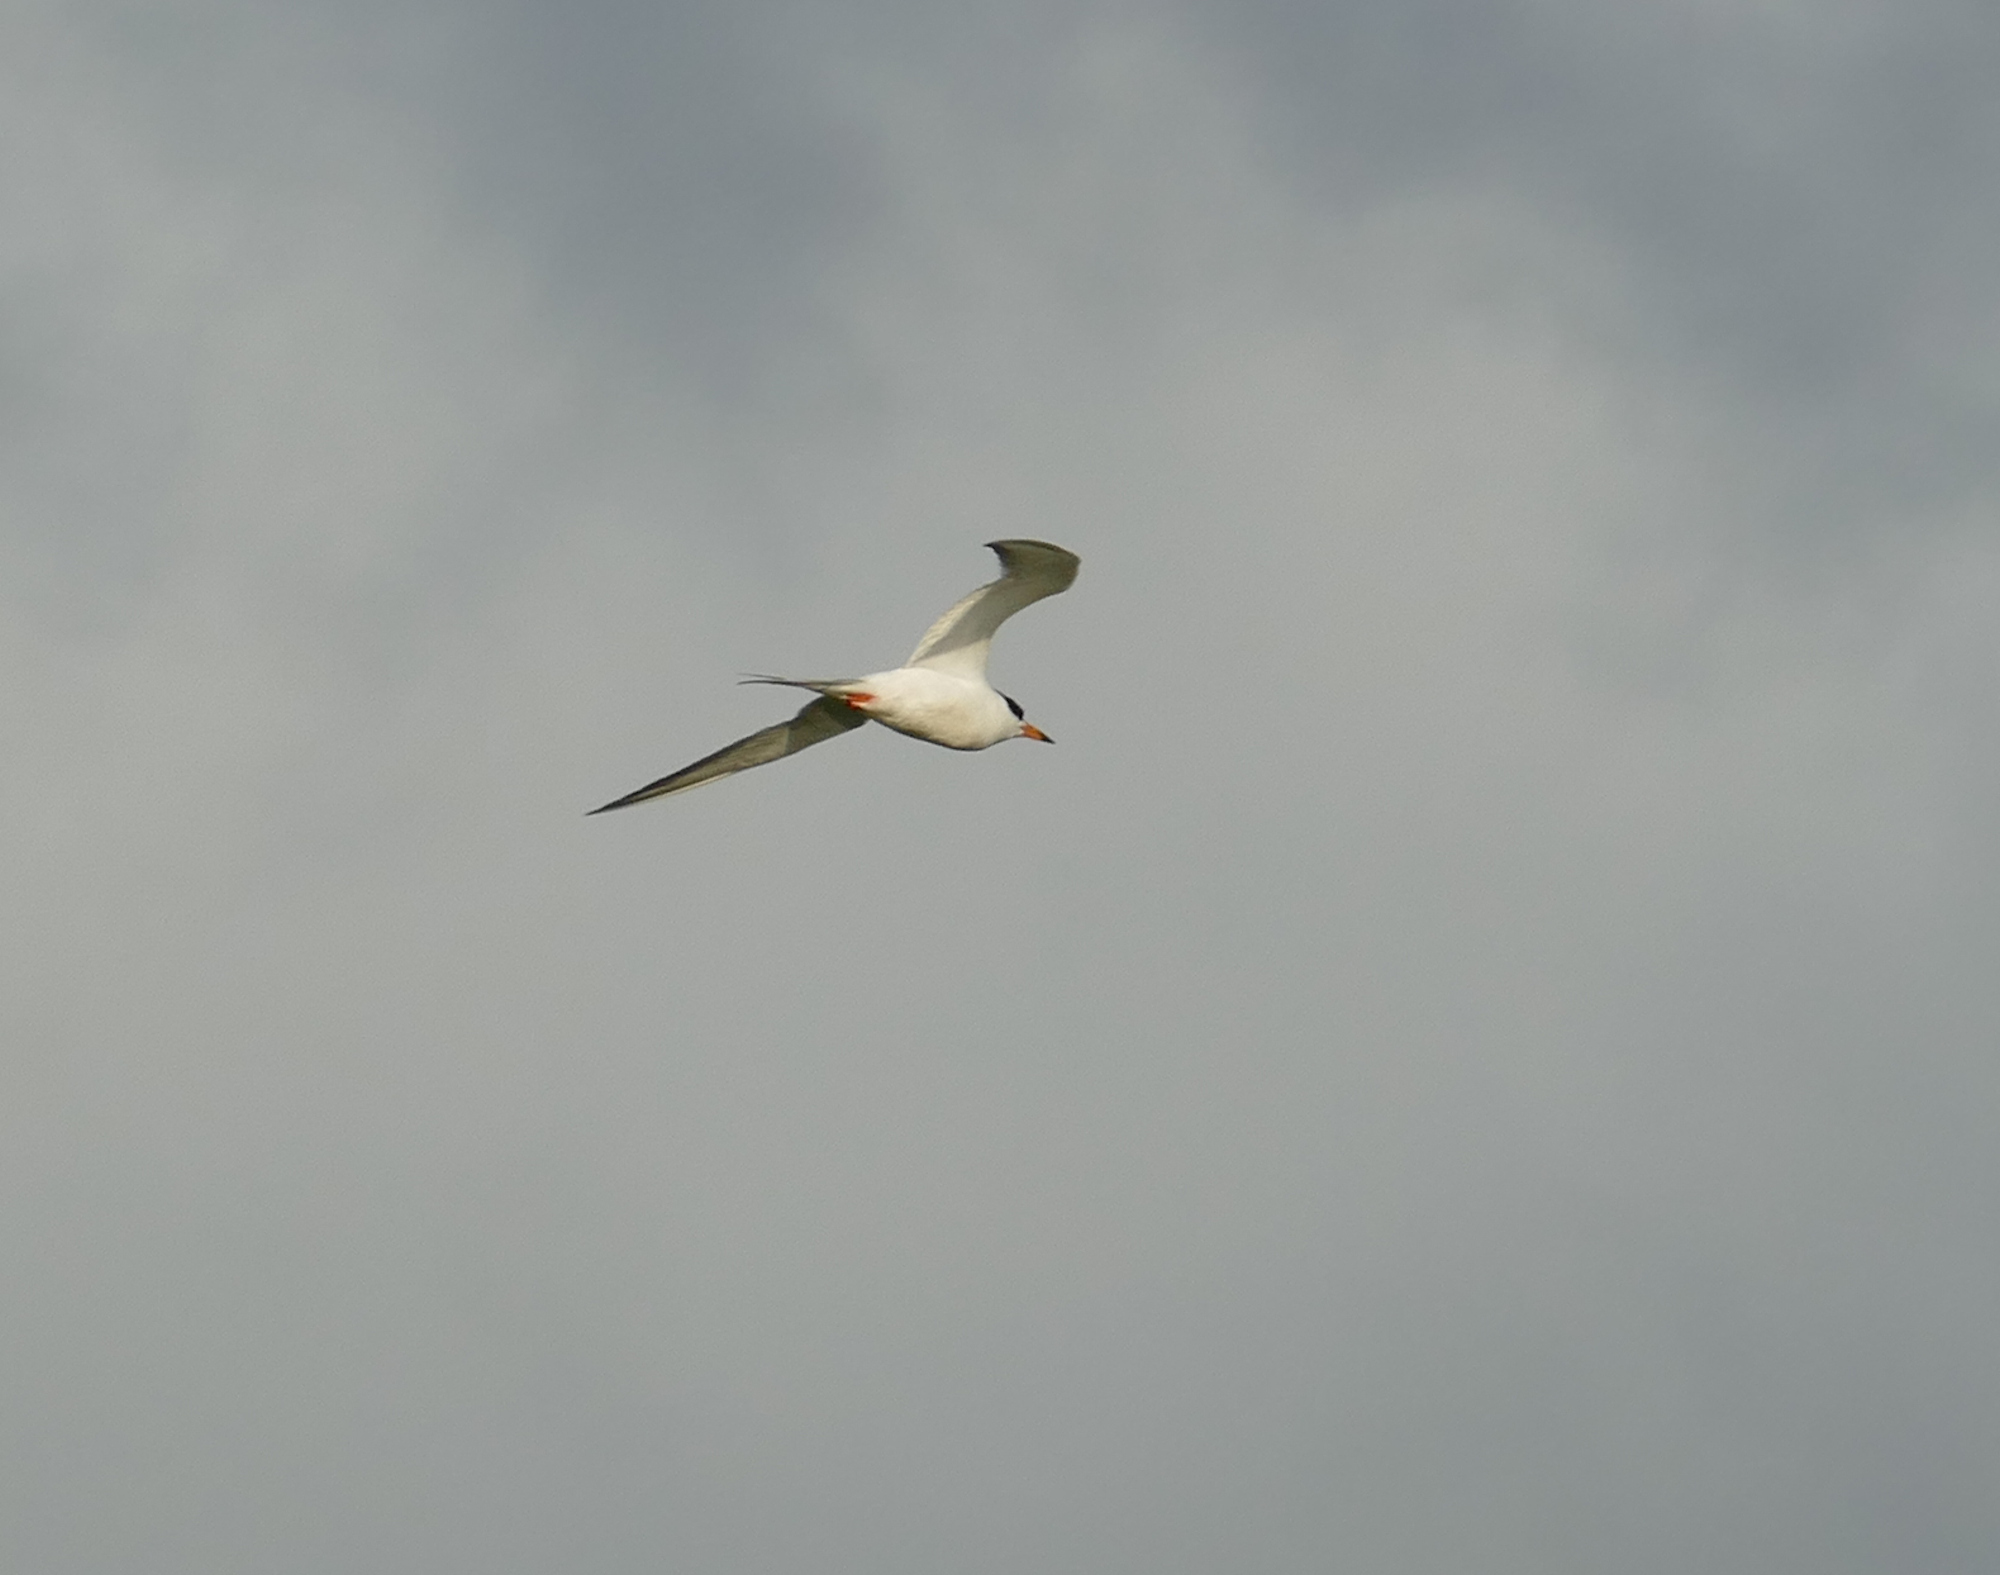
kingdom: Animalia
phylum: Chordata
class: Aves
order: Charadriiformes
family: Laridae
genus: Sterna
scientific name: Sterna forsteri
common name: Forster's tern
